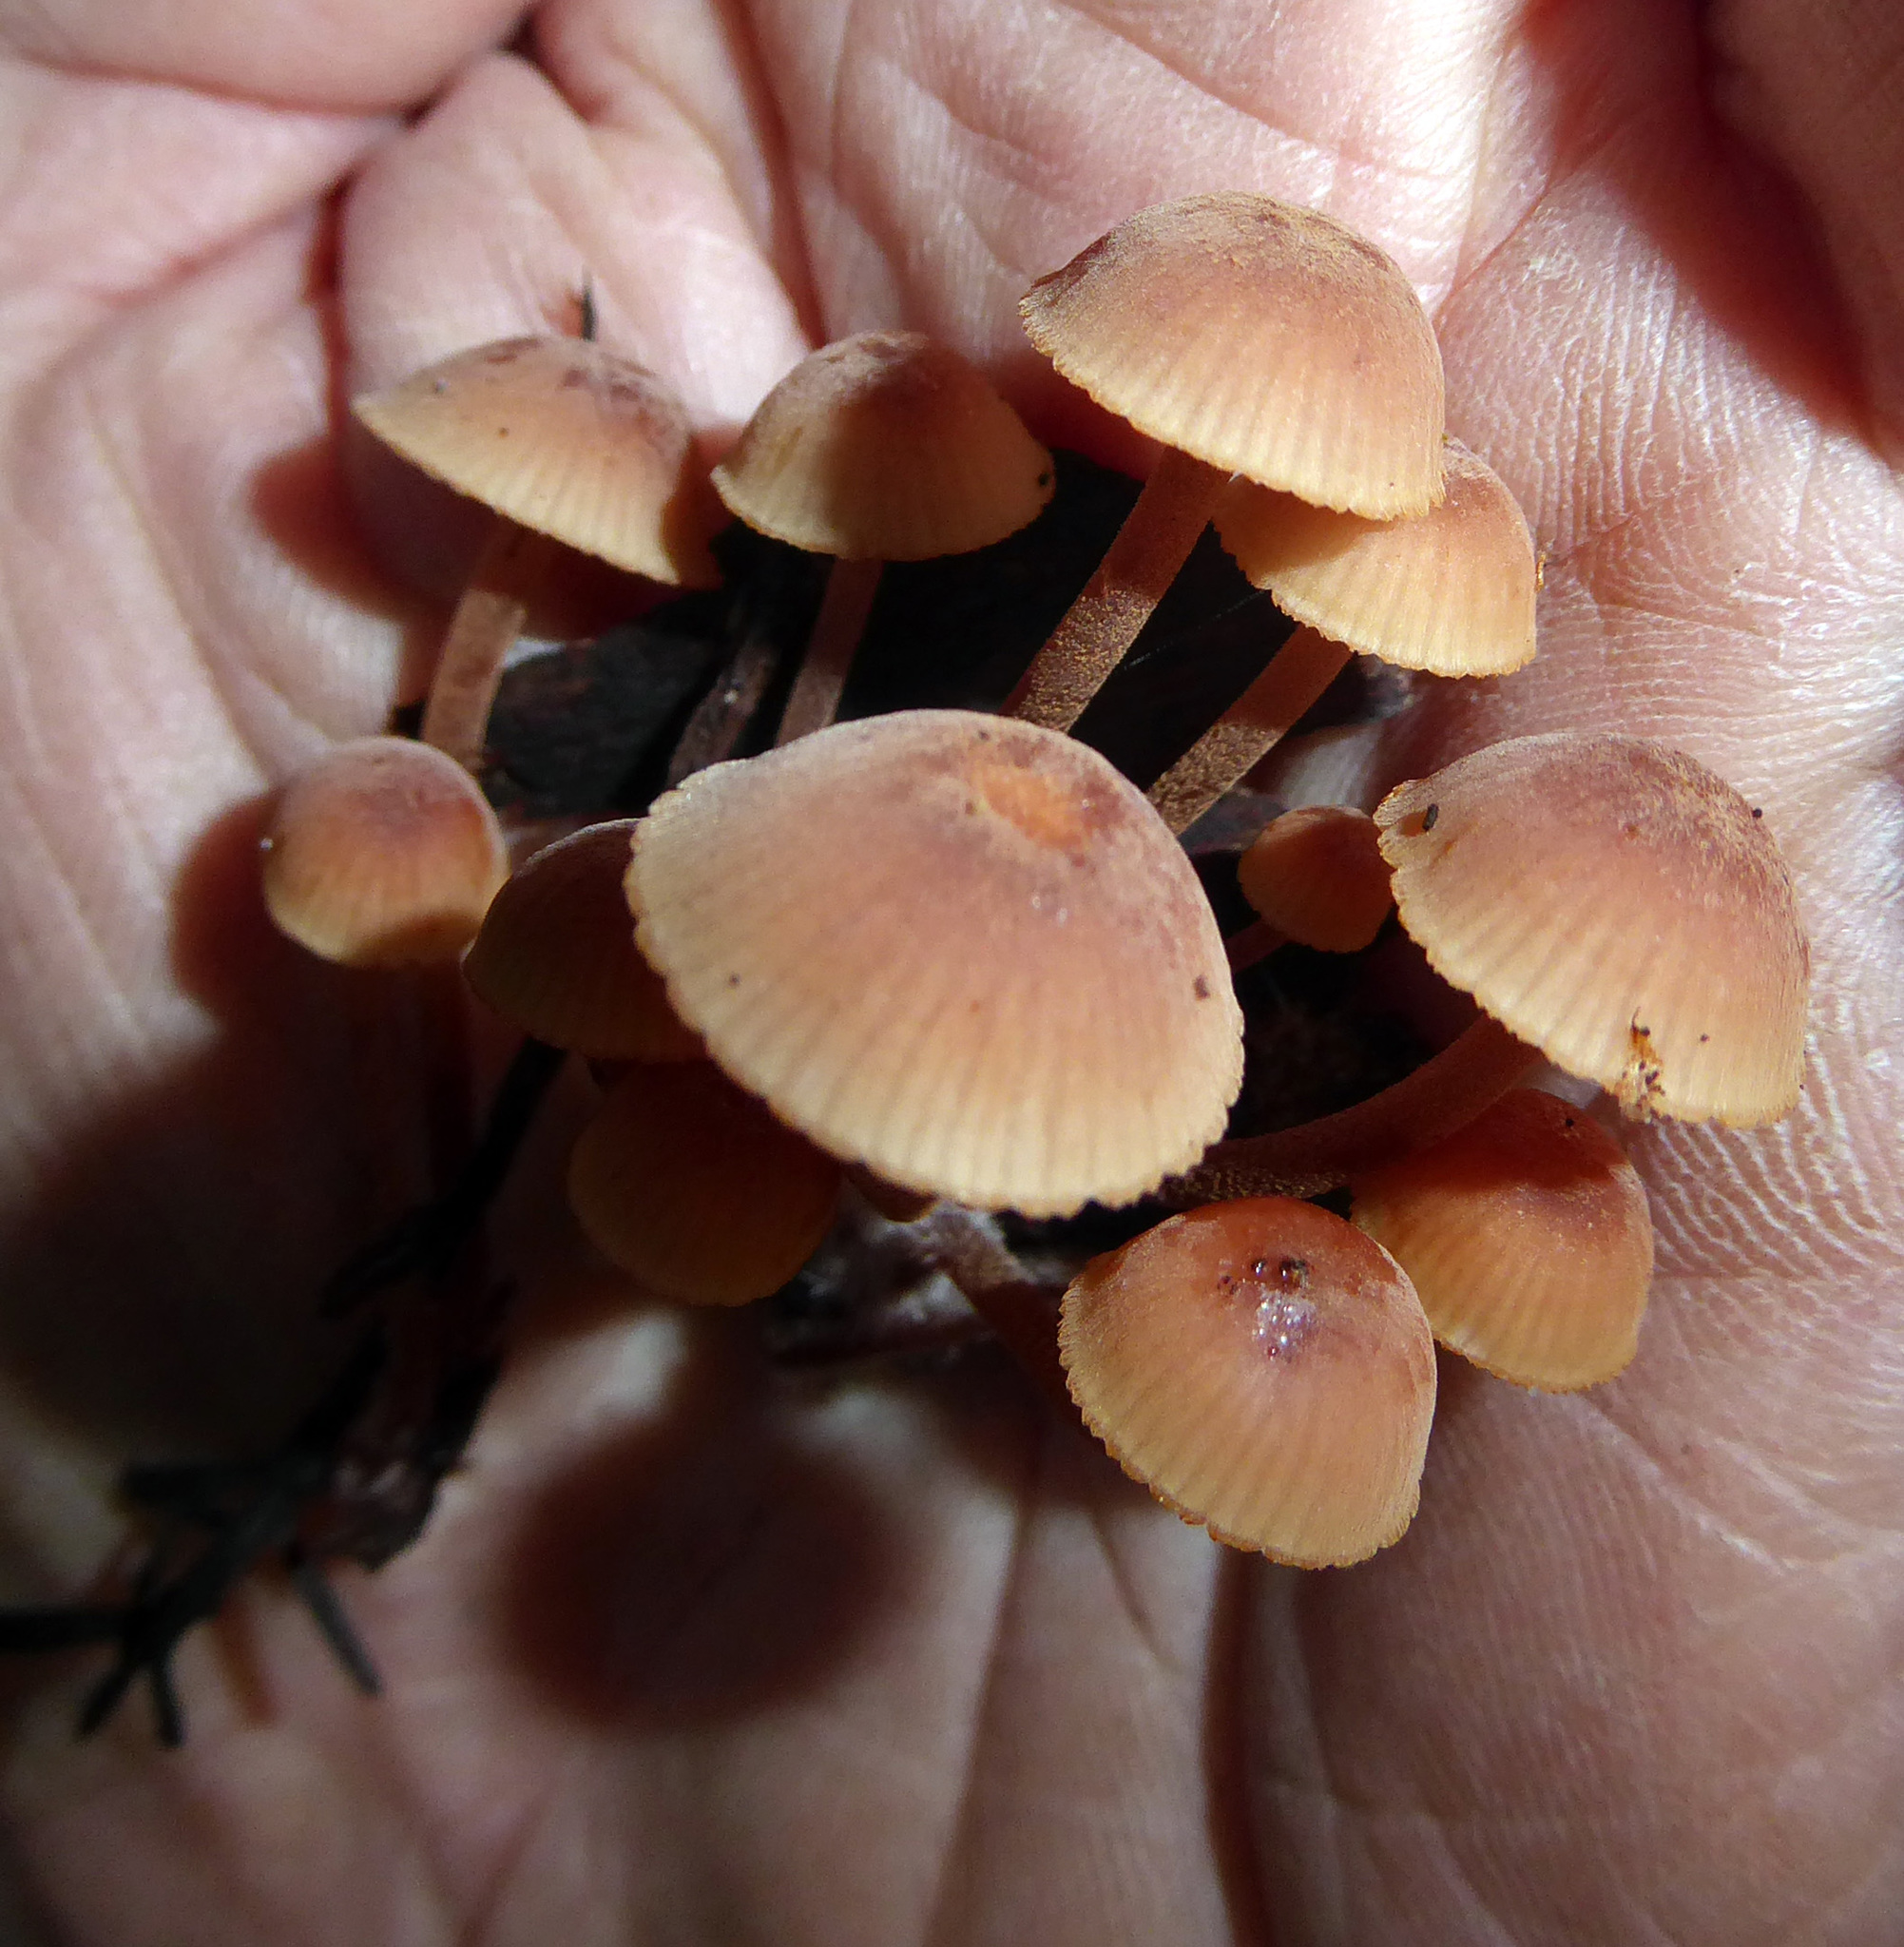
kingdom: Fungi
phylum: Basidiomycota
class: Agaricomycetes
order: Agaricales
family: Mycenaceae
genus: Mycena
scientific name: Mycena parsonsii
